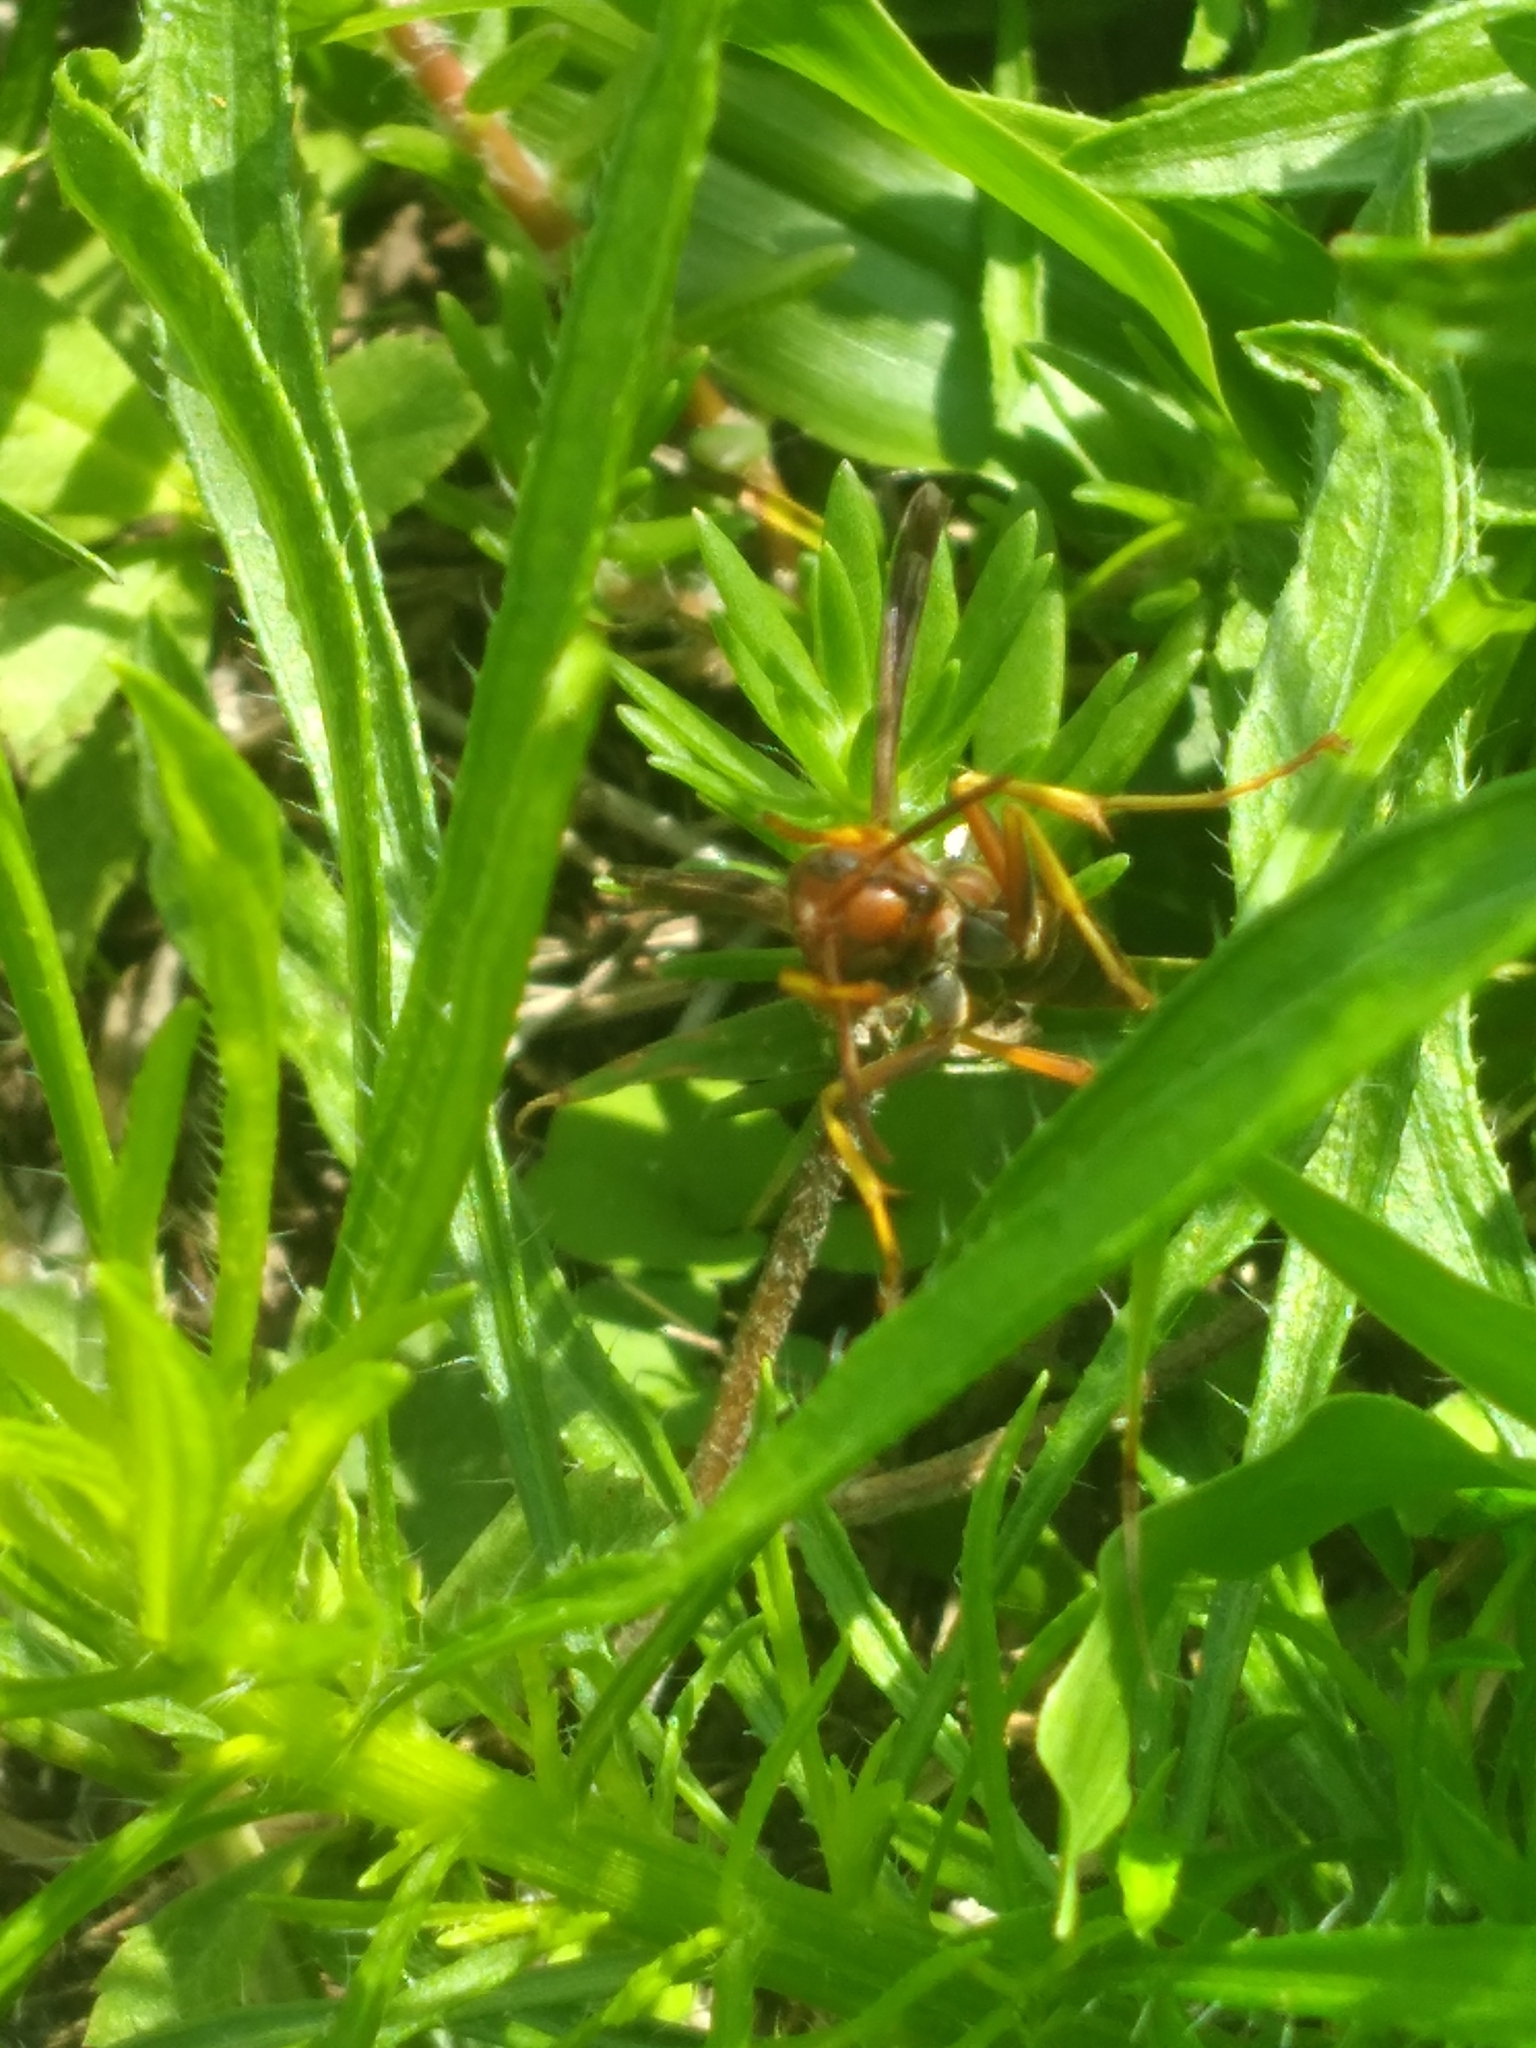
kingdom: Animalia
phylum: Arthropoda
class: Insecta
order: Hymenoptera
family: Eumenidae
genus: Polistes
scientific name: Polistes metricus
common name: Metric paper wasp
